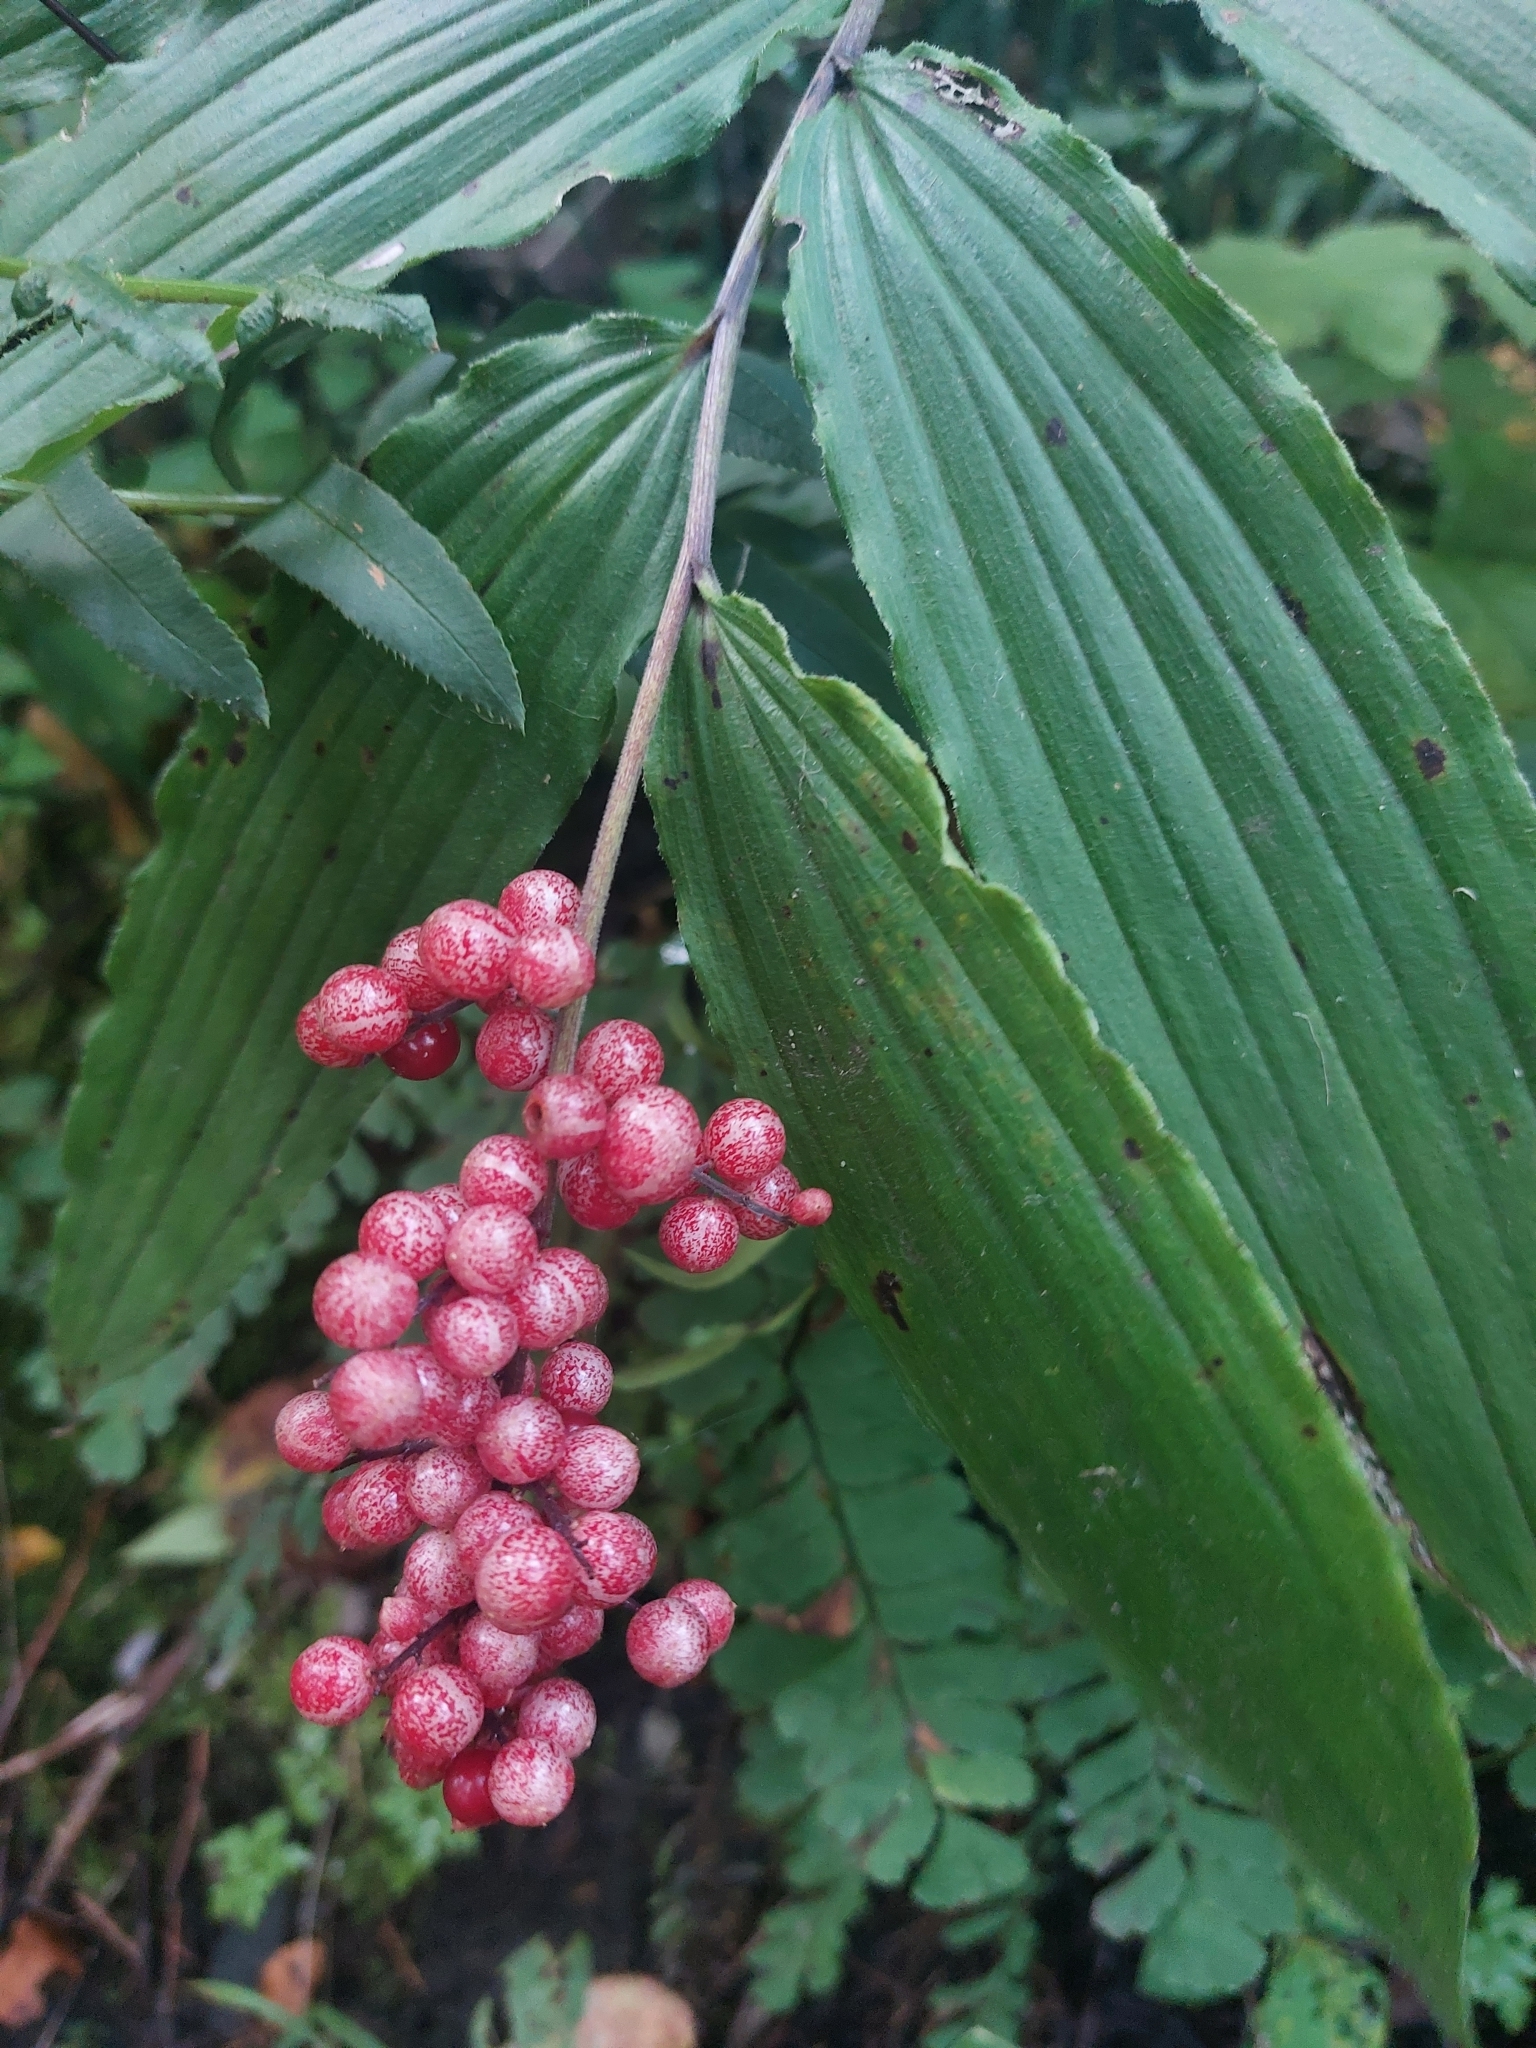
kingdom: Plantae
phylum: Tracheophyta
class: Liliopsida
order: Asparagales
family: Asparagaceae
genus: Maianthemum
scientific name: Maianthemum racemosum
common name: False spikenard
